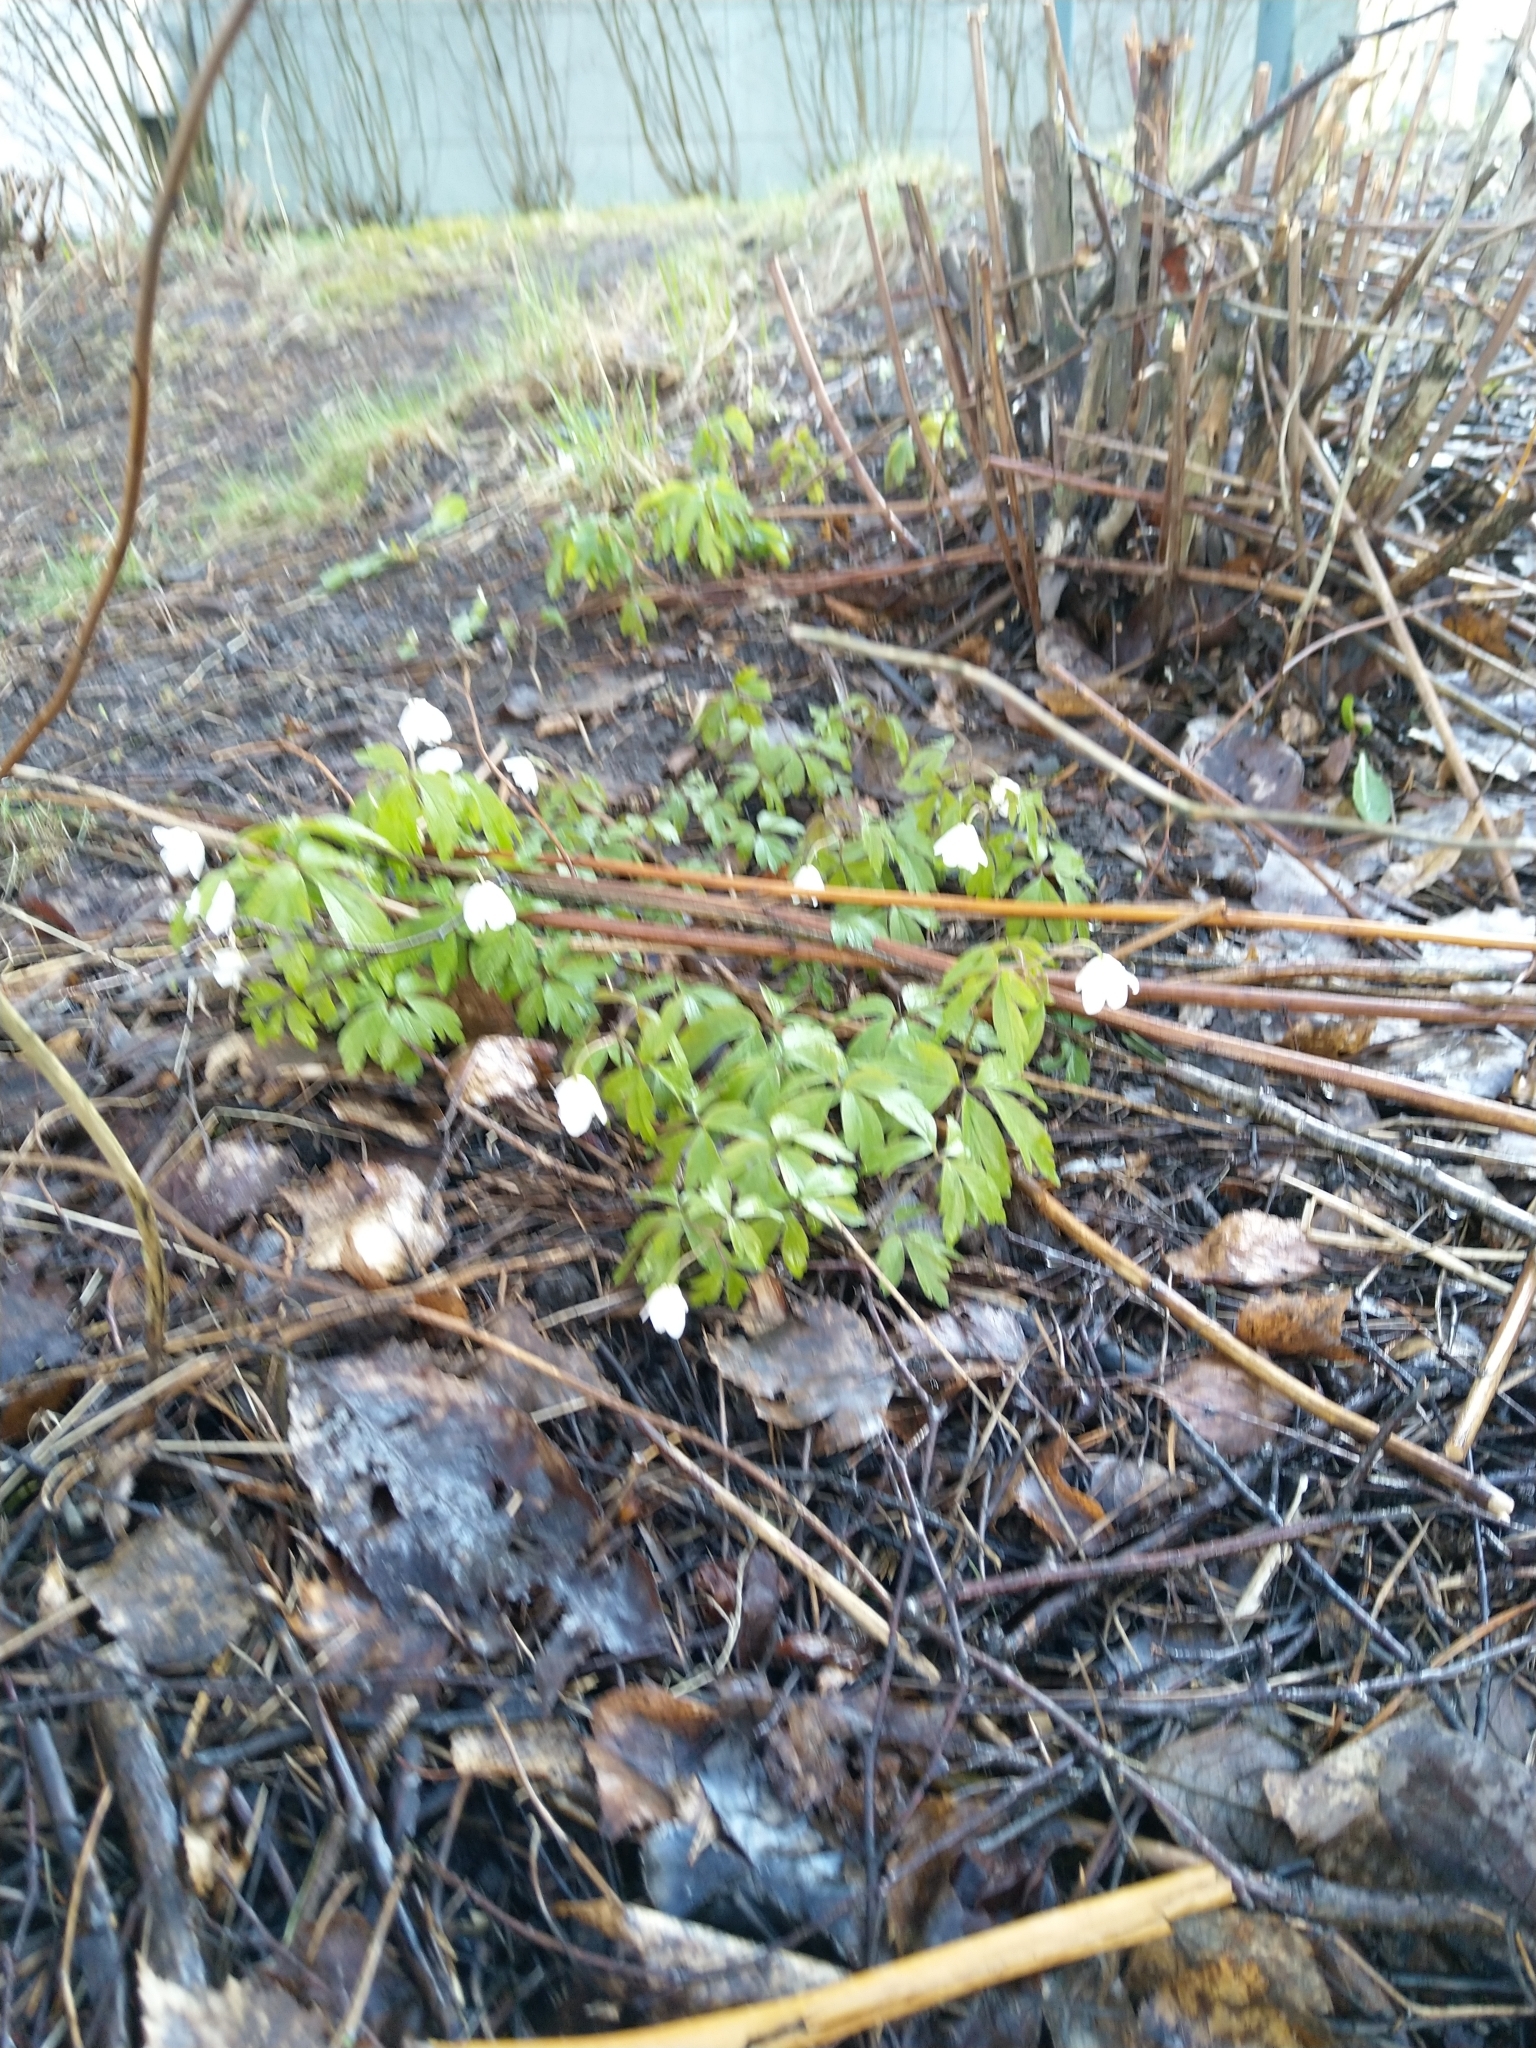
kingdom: Plantae
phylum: Tracheophyta
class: Magnoliopsida
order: Ranunculales
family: Ranunculaceae
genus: Anemone
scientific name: Anemone nemorosa
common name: Wood anemone
